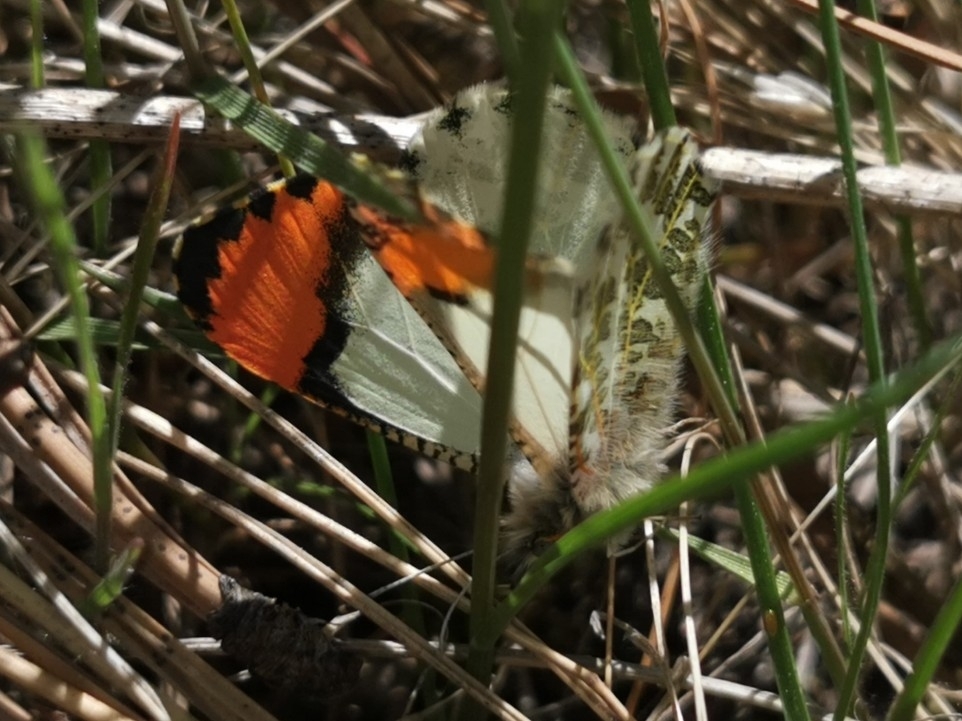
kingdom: Animalia
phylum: Arthropoda
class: Insecta
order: Lepidoptera
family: Pieridae
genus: Anthocharis
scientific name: Anthocharis julia
